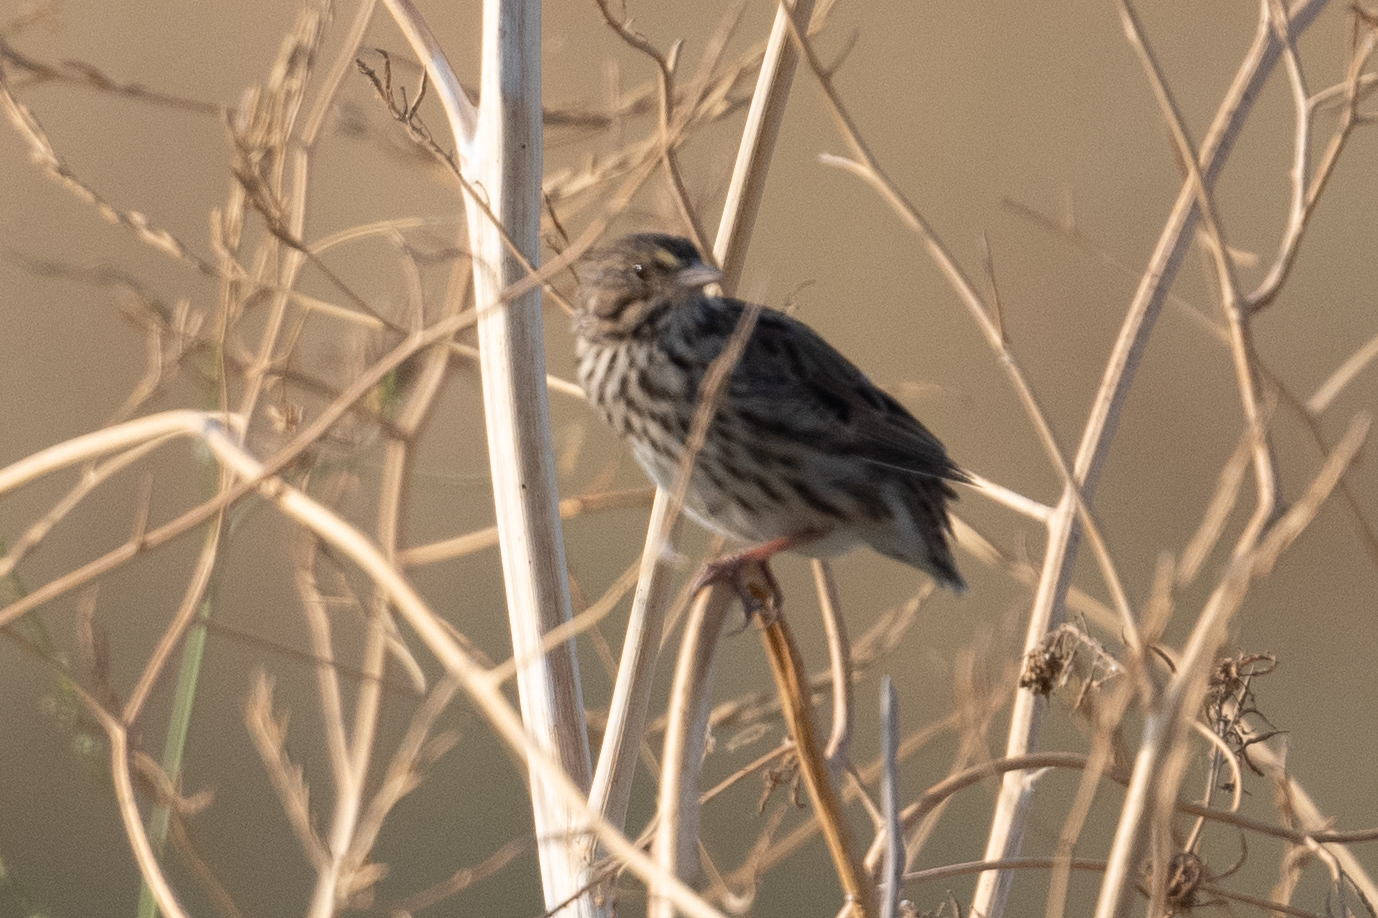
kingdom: Animalia
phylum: Chordata
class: Aves
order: Passeriformes
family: Passerellidae
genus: Passerculus
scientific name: Passerculus sandwichensis
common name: Savannah sparrow
